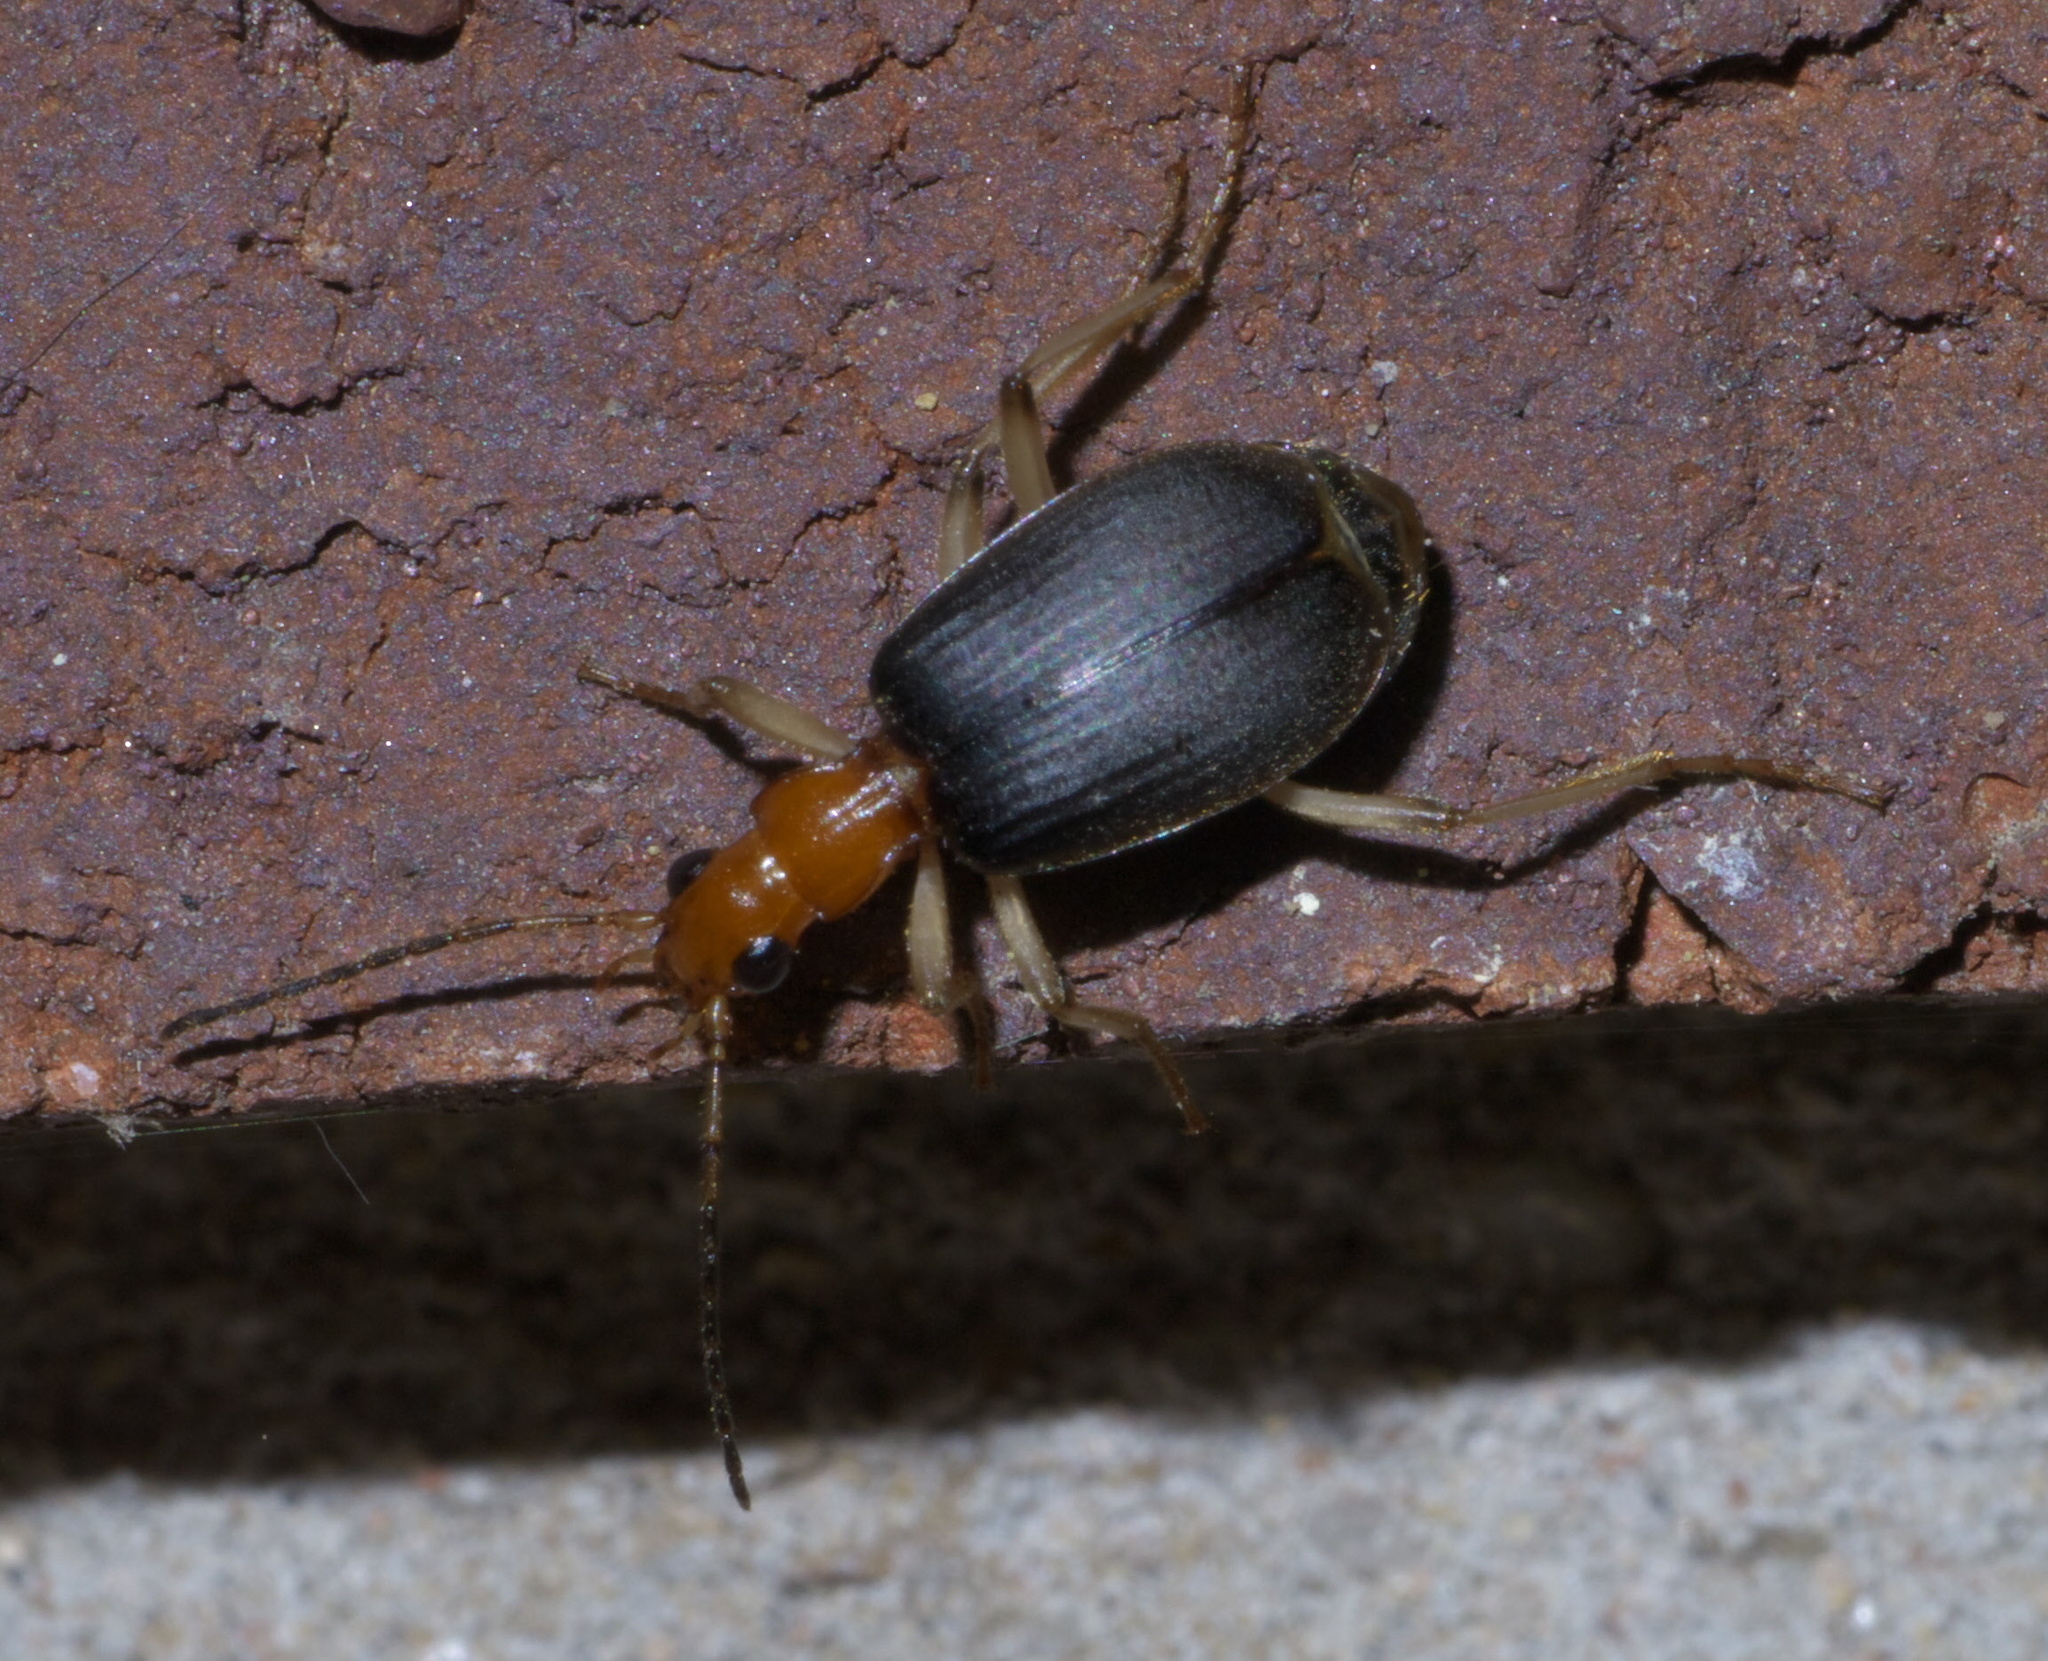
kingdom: Animalia
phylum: Arthropoda
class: Insecta
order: Coleoptera
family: Carabidae
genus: Brachinus
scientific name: Brachinus adustipennis
